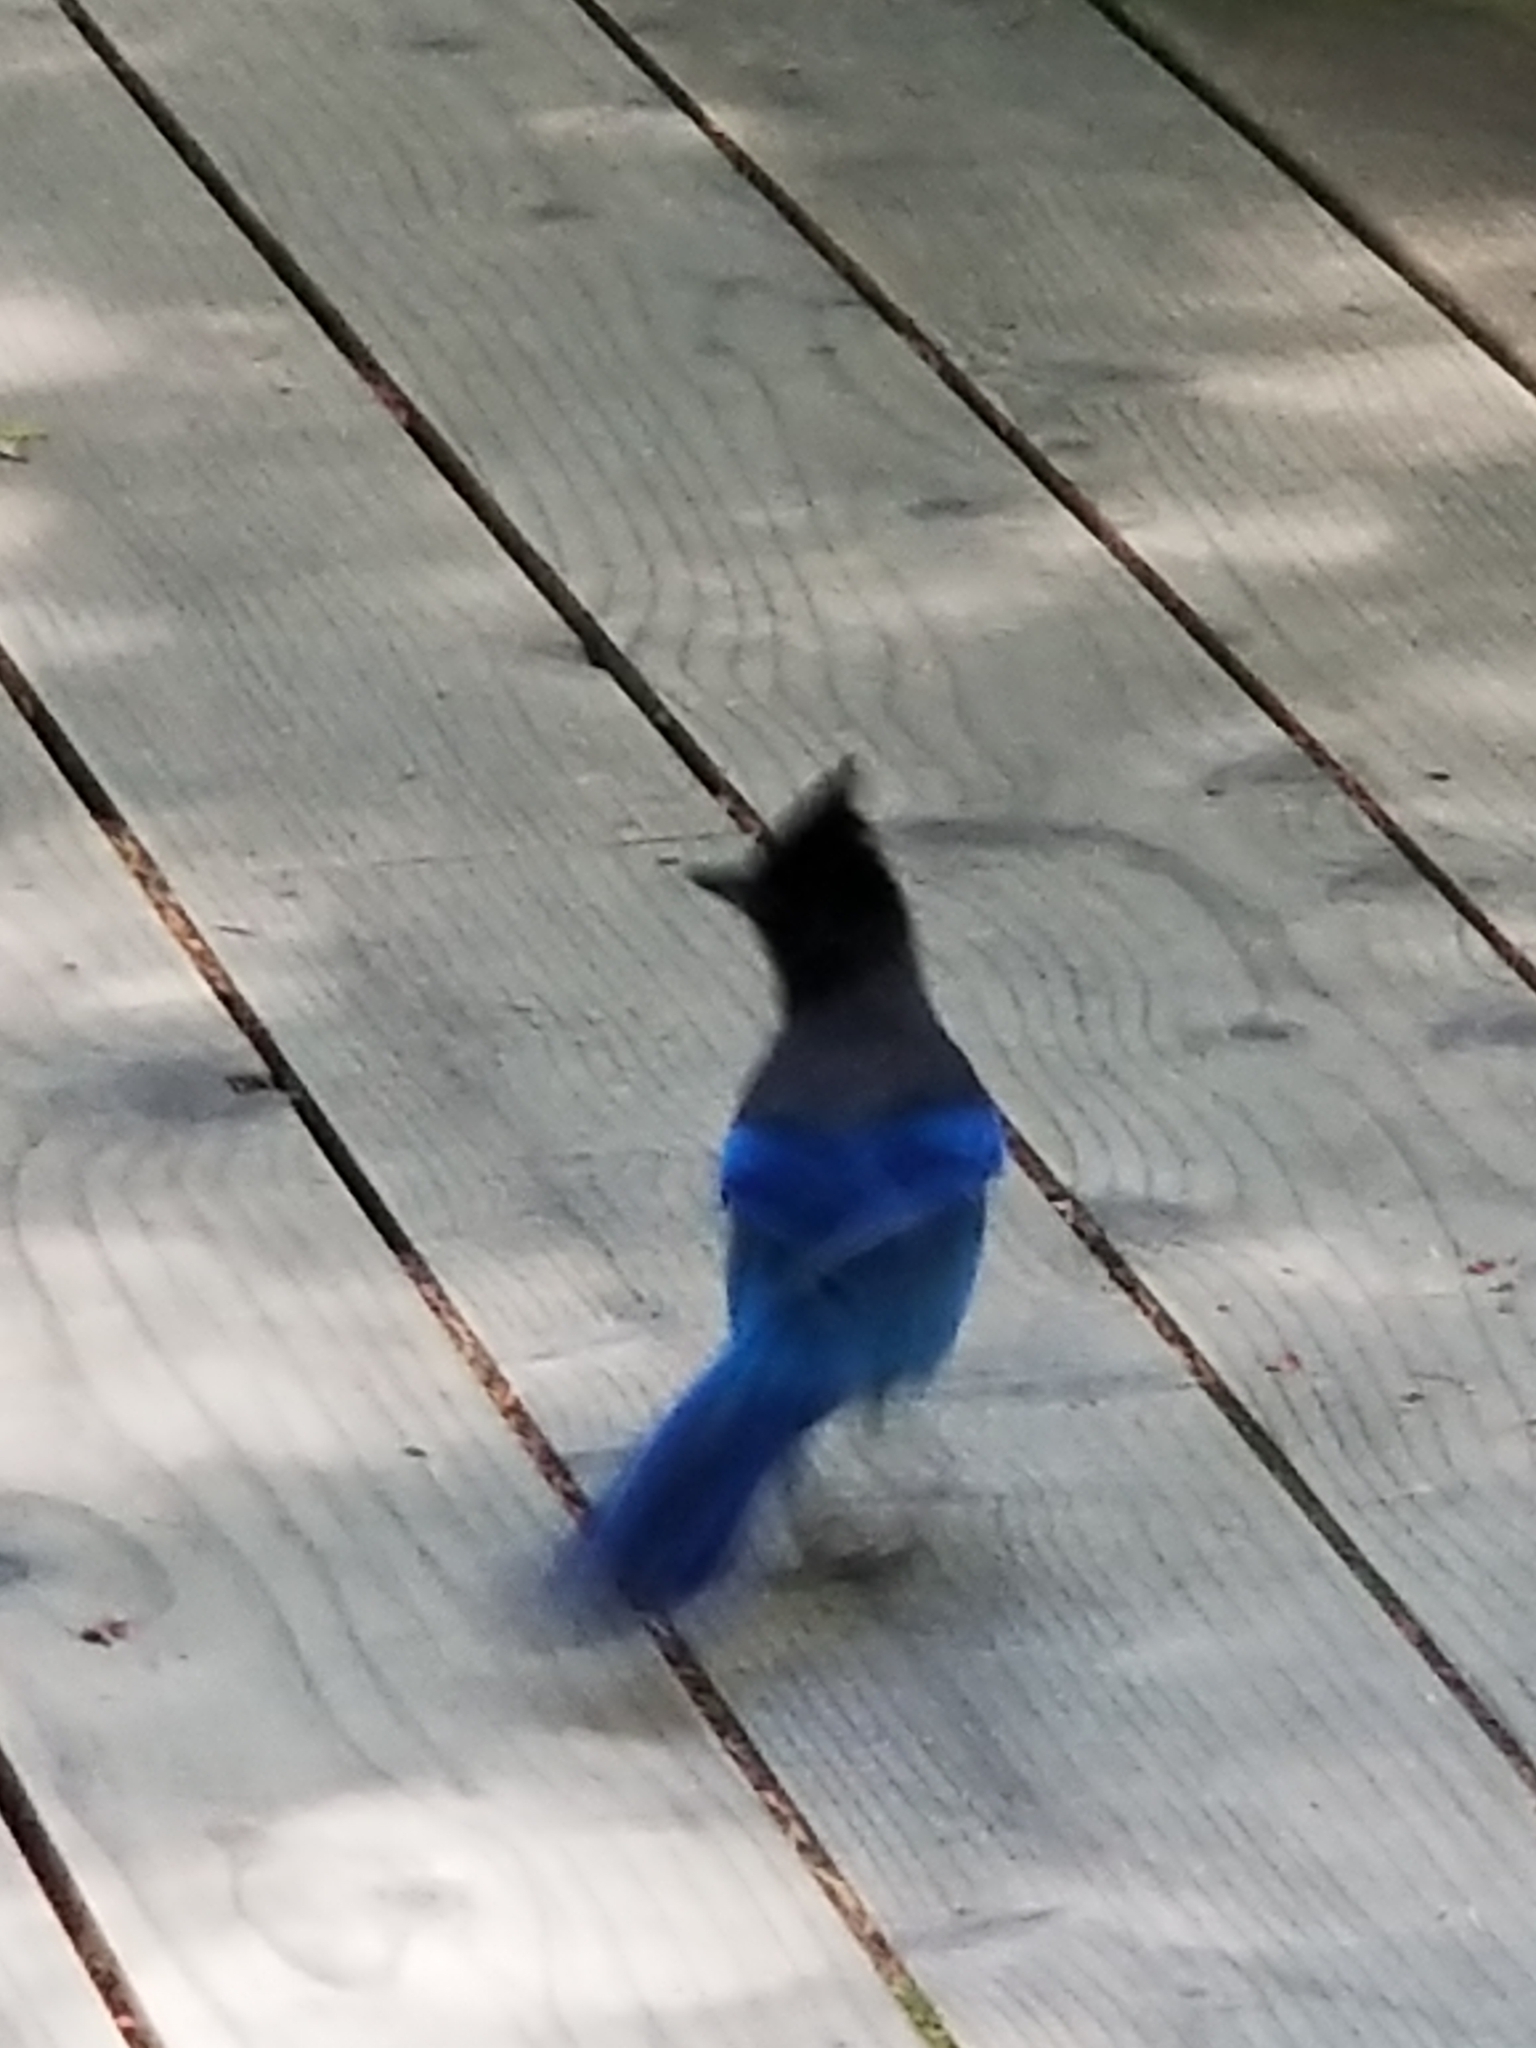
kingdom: Animalia
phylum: Chordata
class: Aves
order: Passeriformes
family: Corvidae
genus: Cyanocitta
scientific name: Cyanocitta stelleri
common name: Steller's jay
